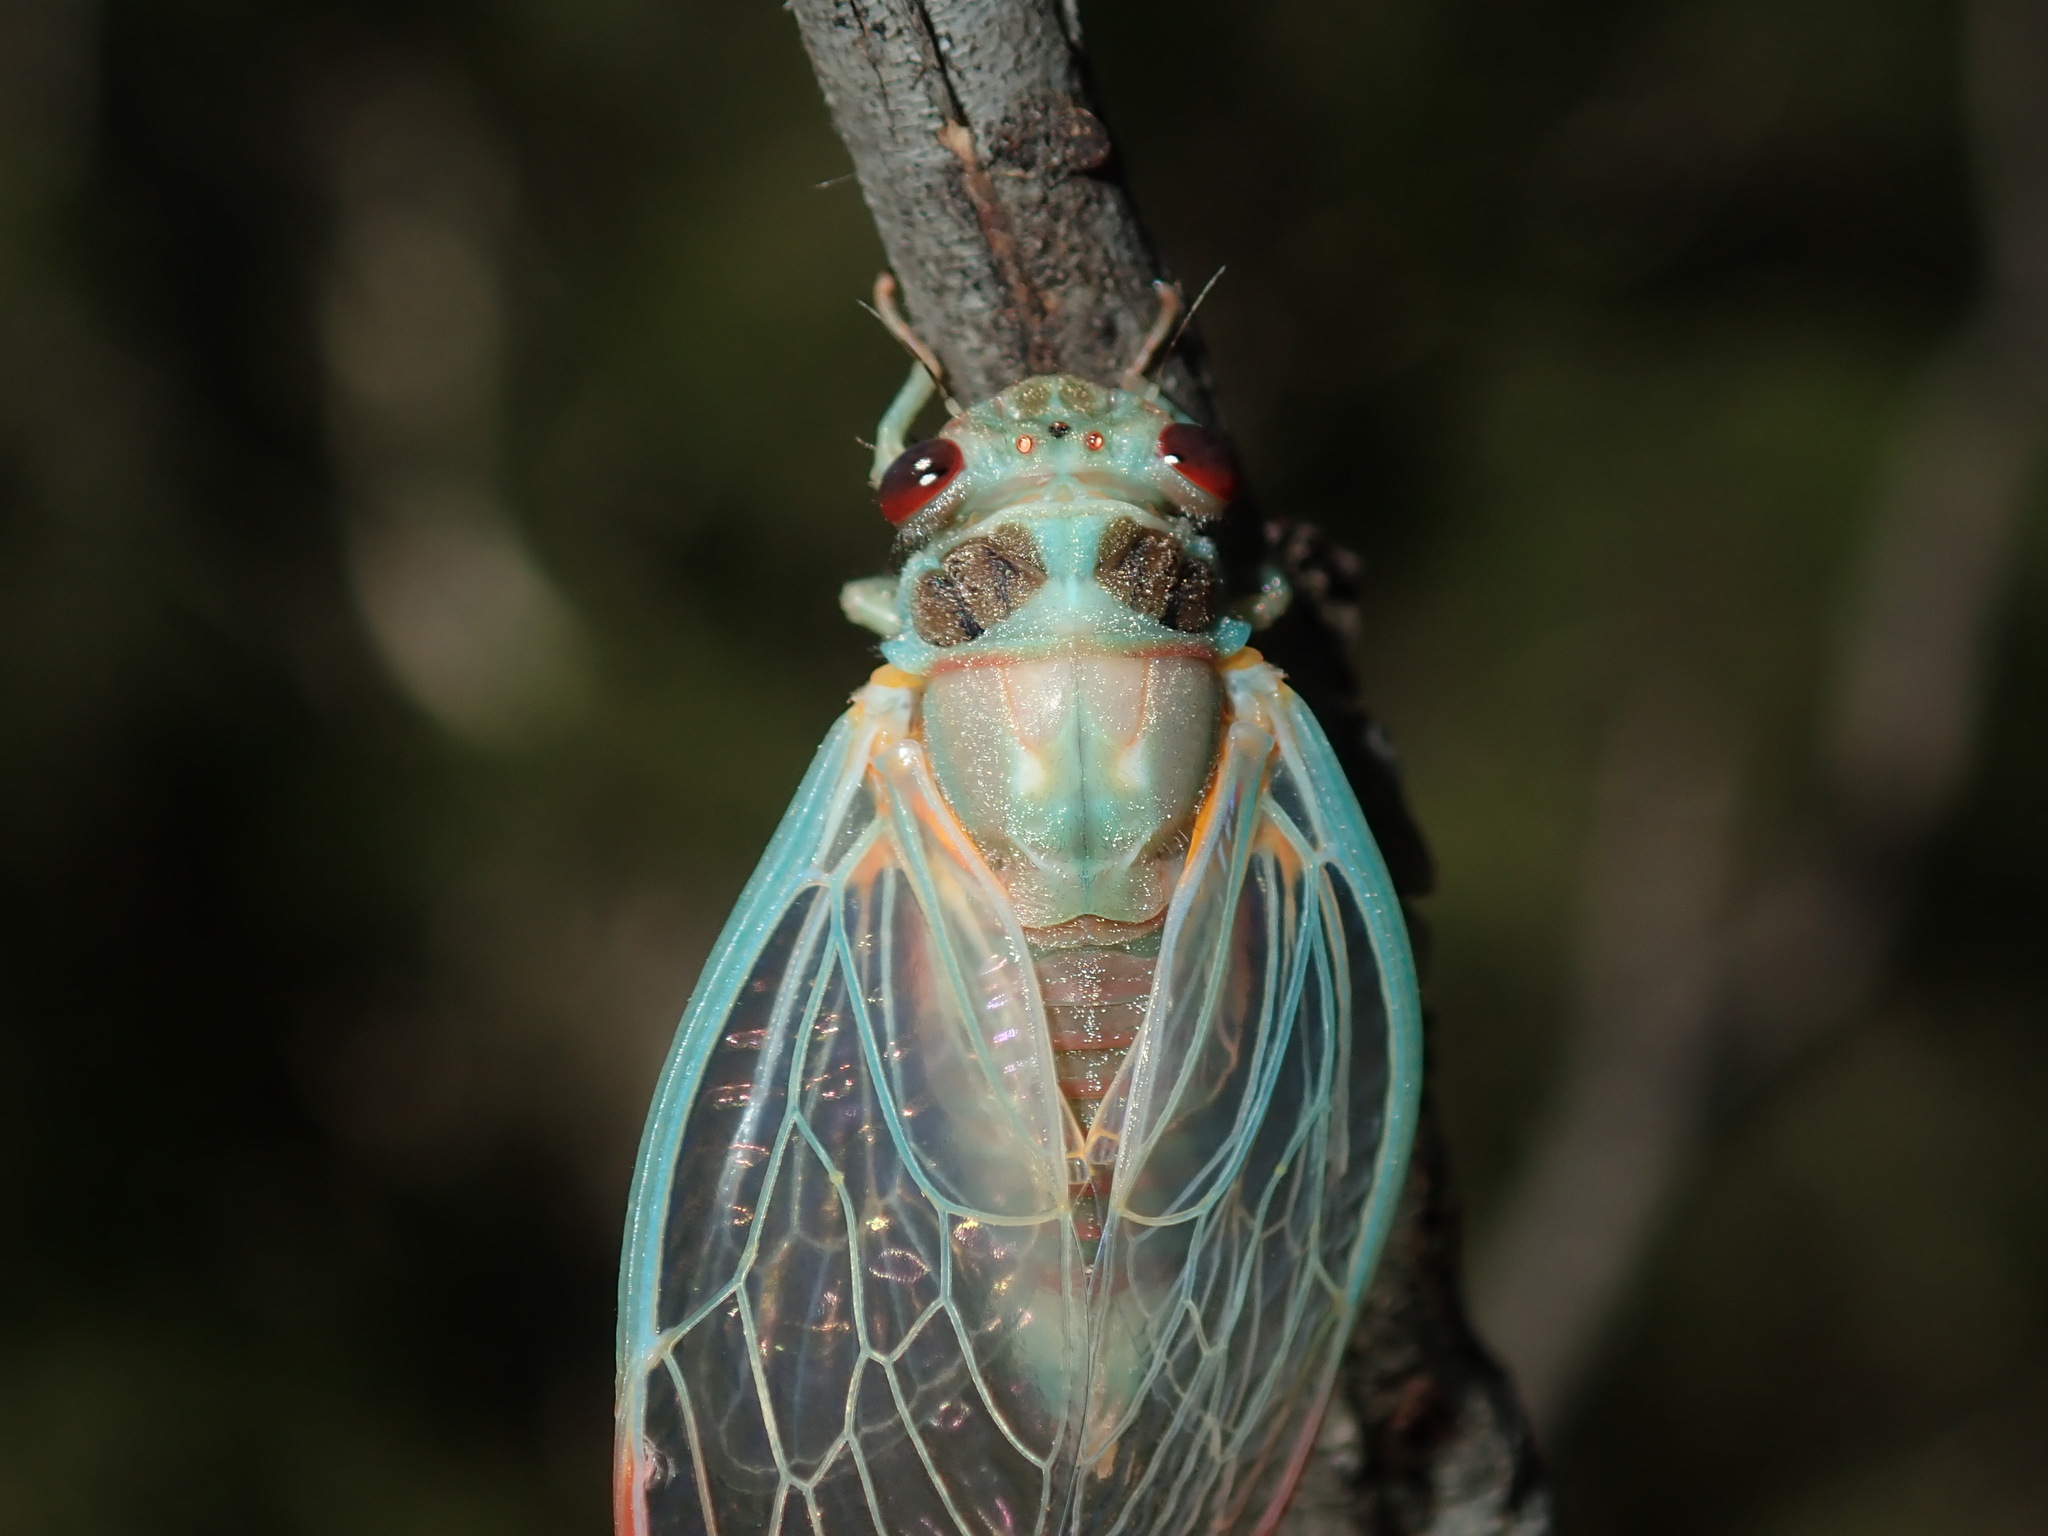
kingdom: Animalia
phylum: Arthropoda
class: Insecta
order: Hemiptera
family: Cicadidae
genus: Popplepsalta
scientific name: Popplepsalta notialis
